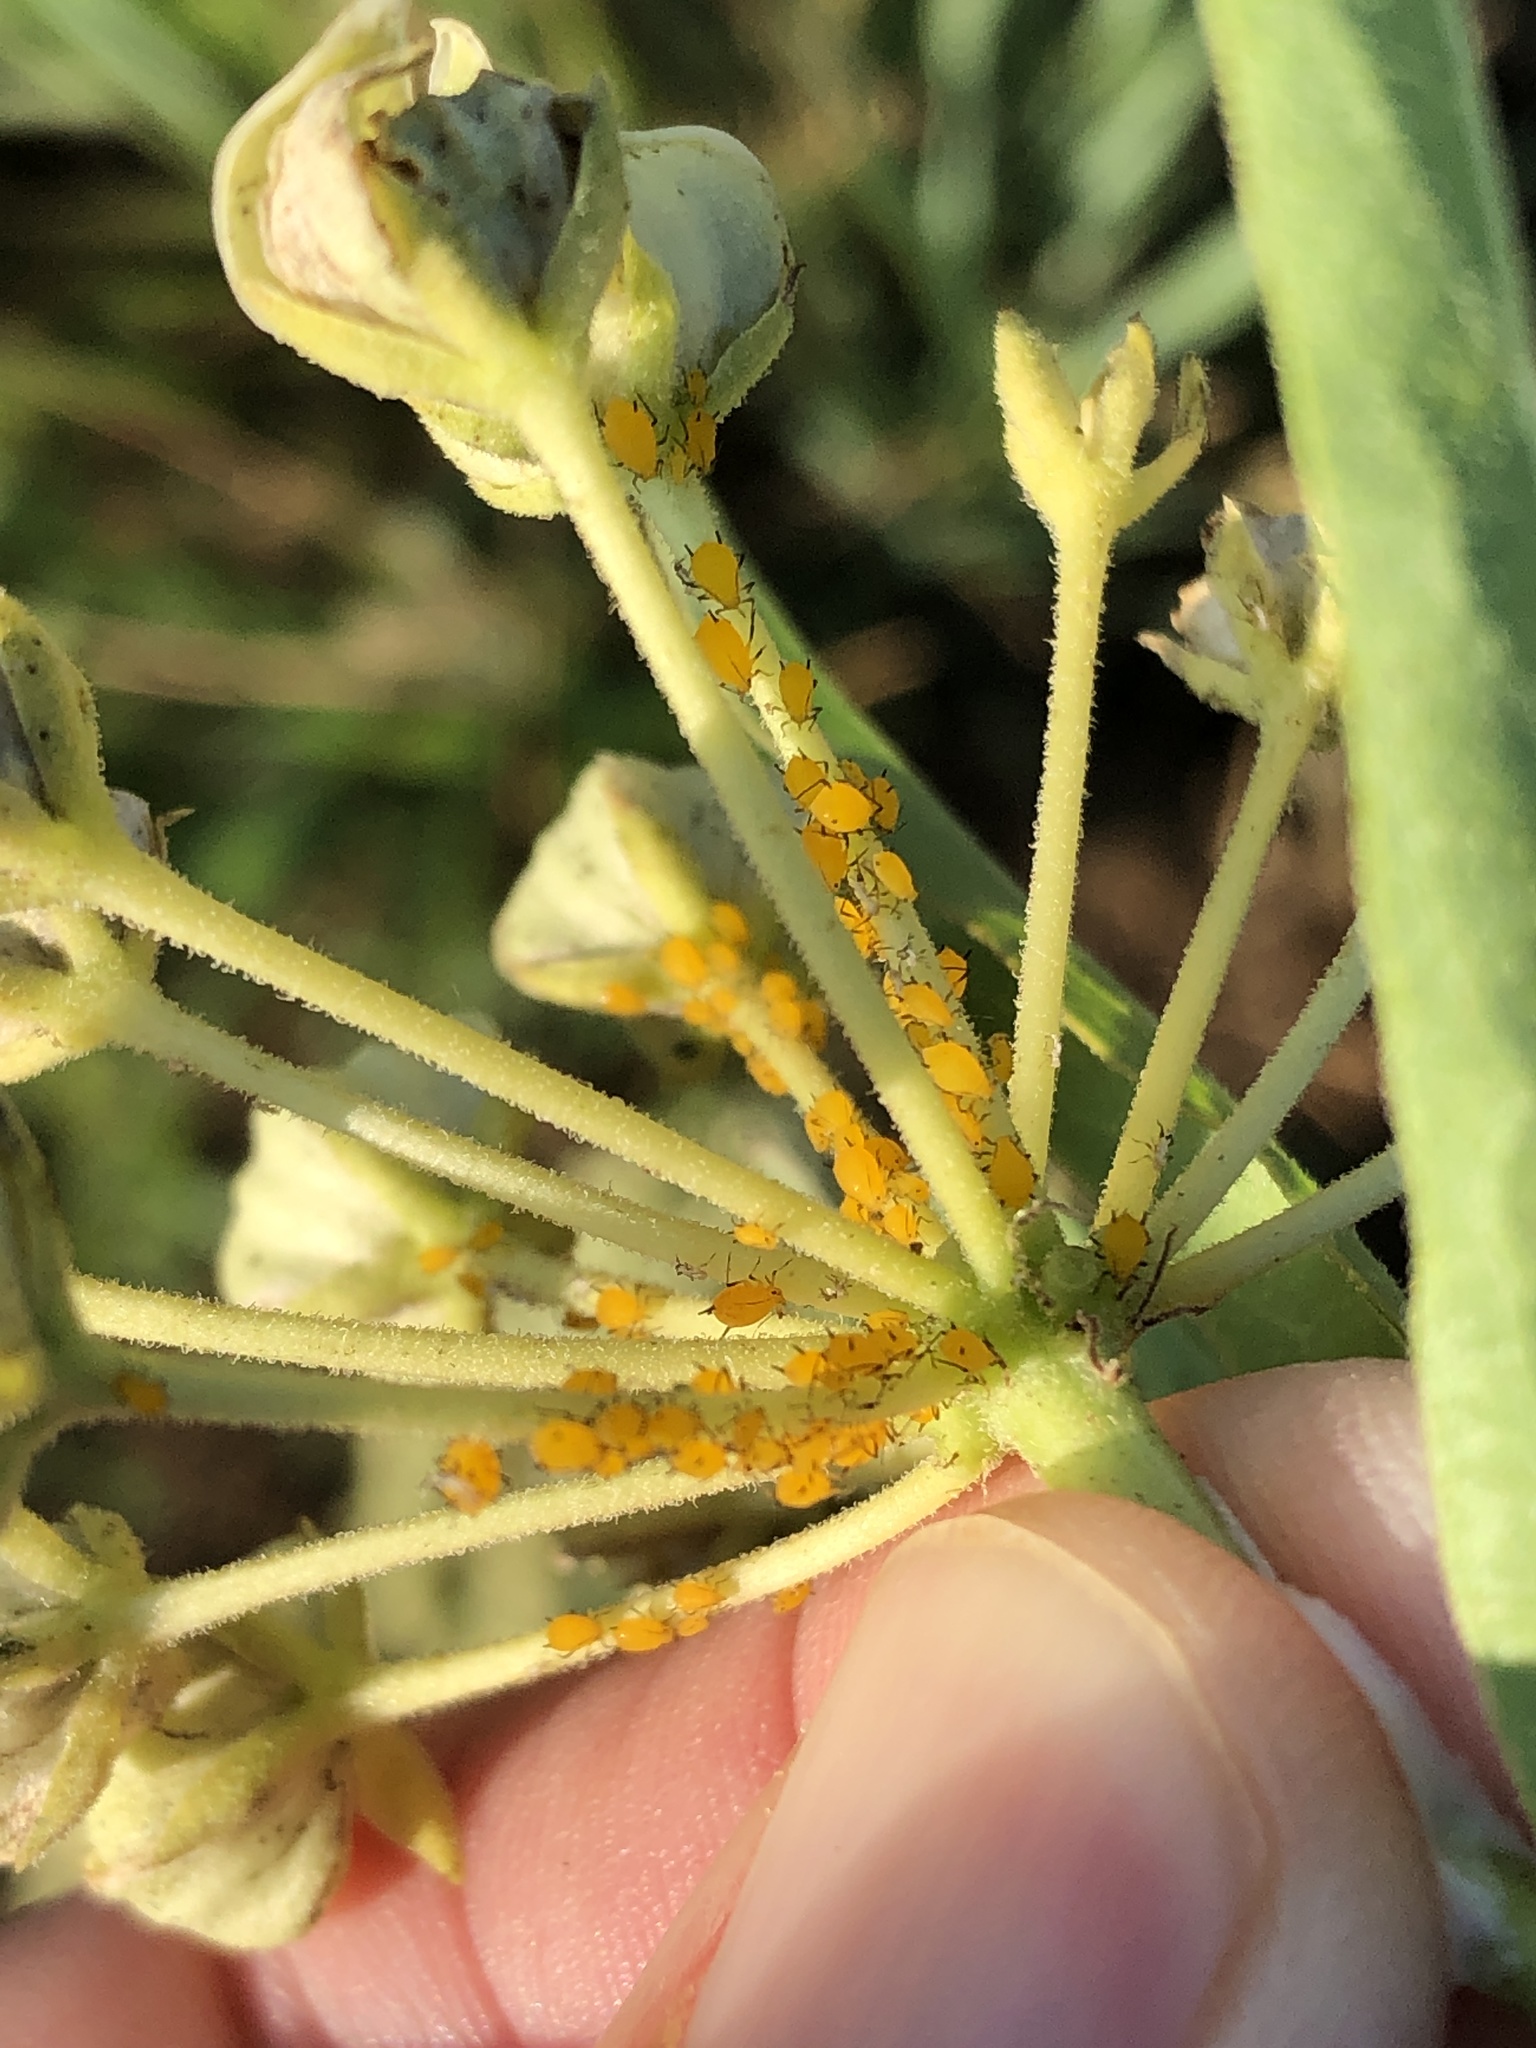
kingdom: Animalia
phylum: Arthropoda
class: Insecta
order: Hemiptera
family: Aphididae
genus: Aphis
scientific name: Aphis nerii
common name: Oleander aphid
